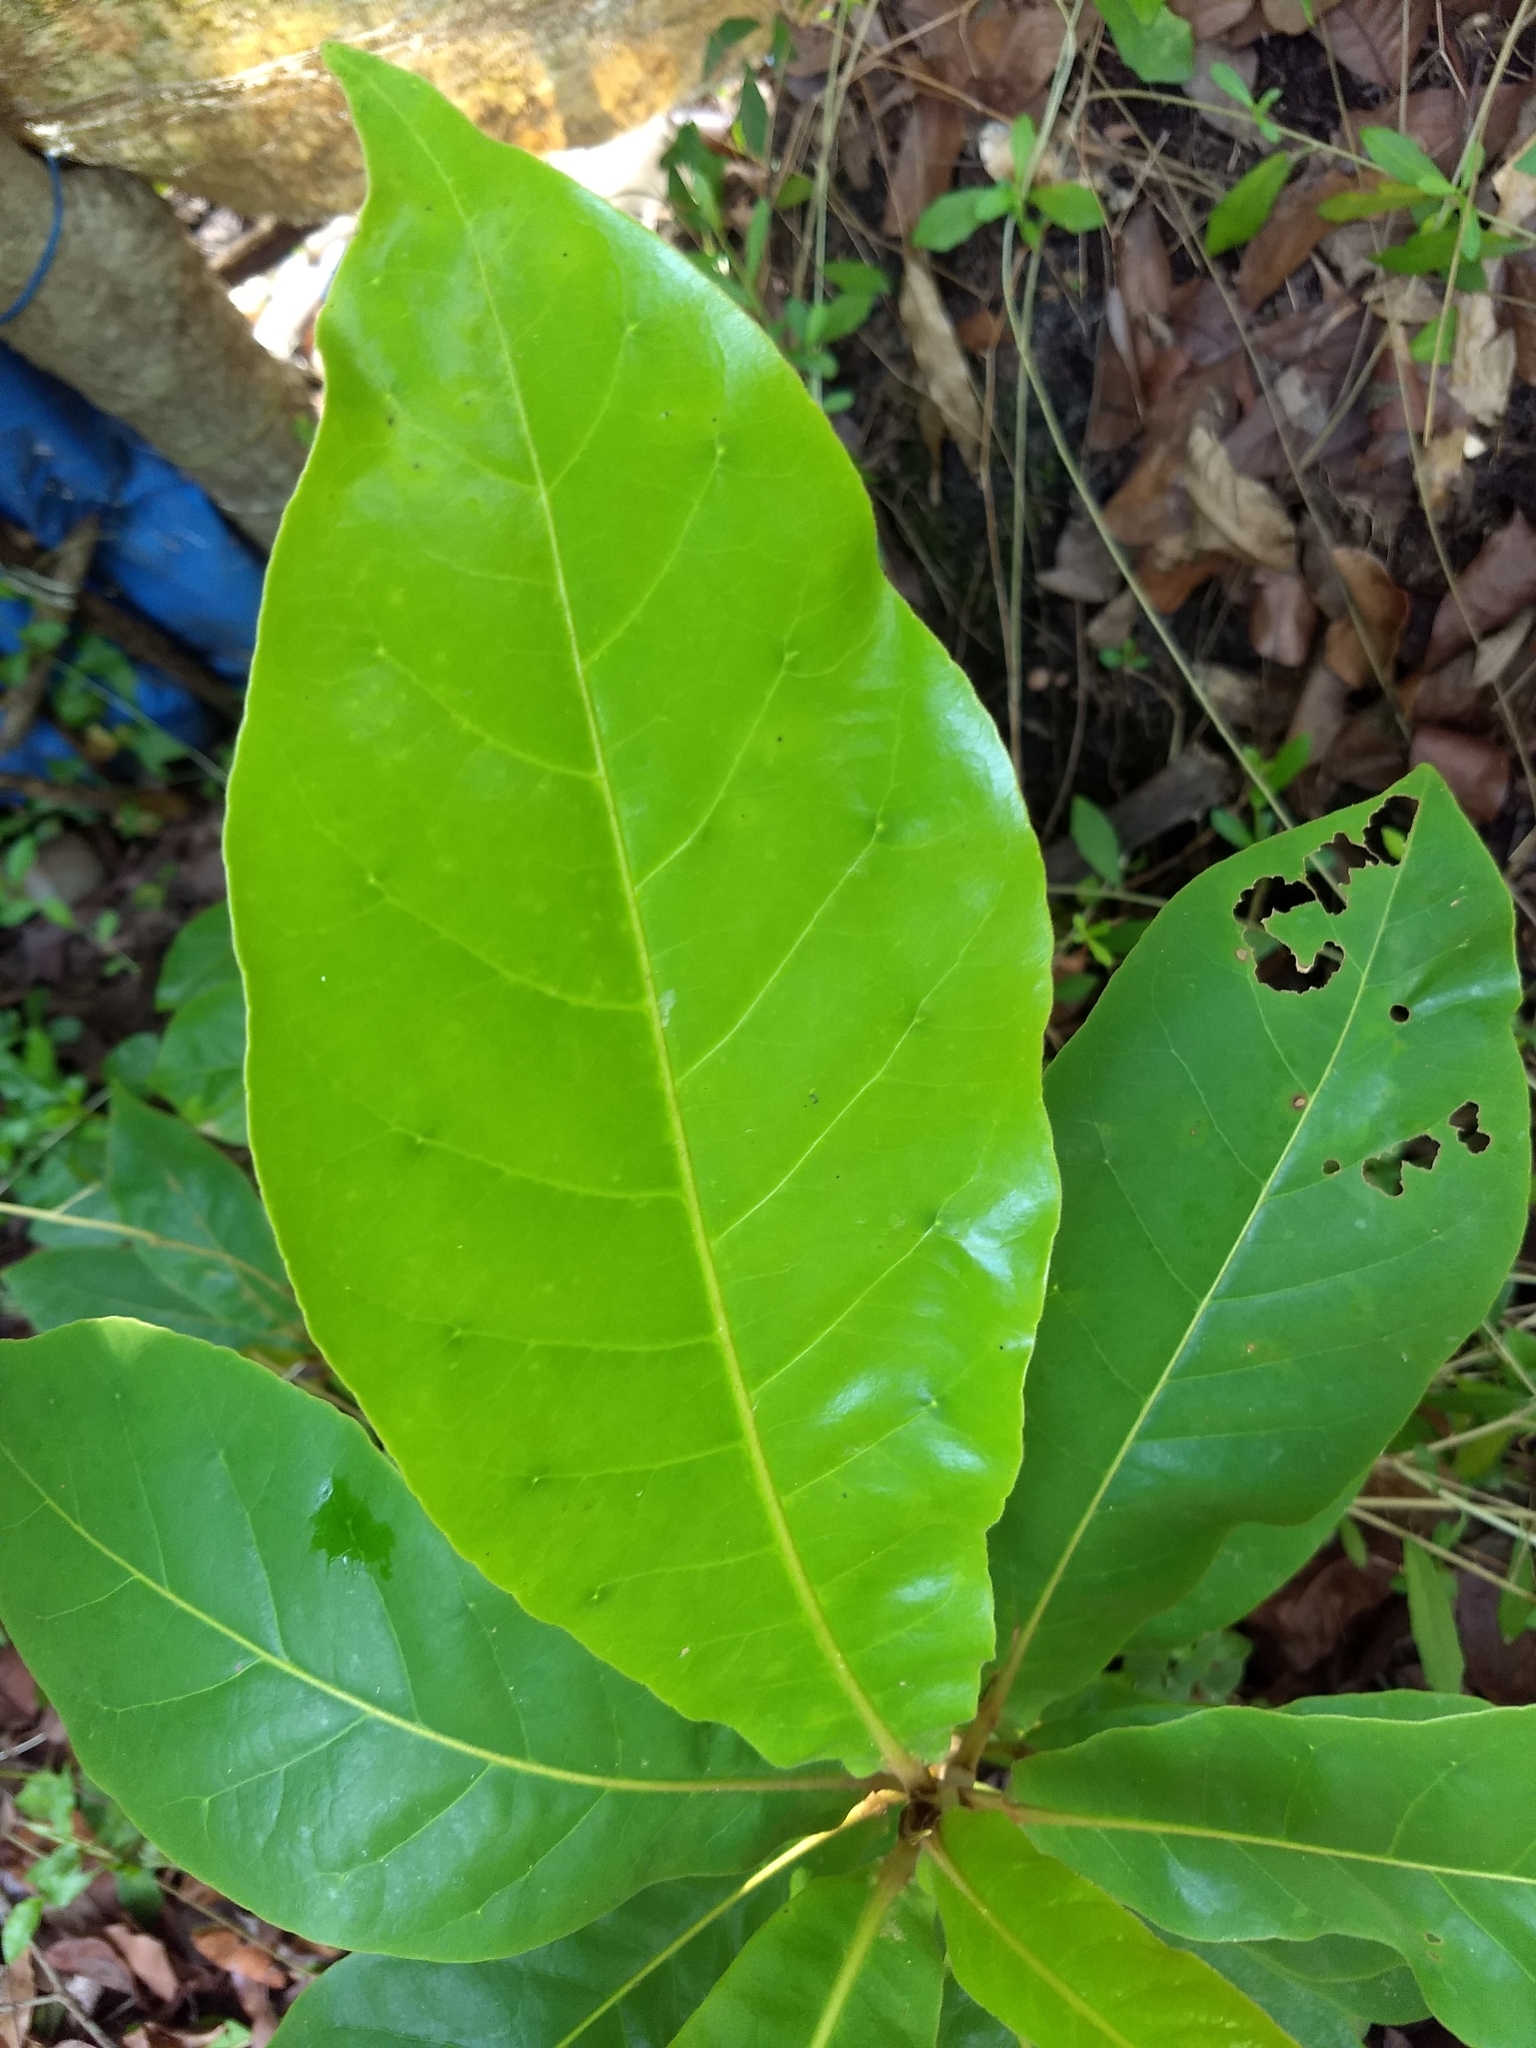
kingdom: Plantae
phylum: Tracheophyta
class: Magnoliopsida
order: Myrtales
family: Combretaceae
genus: Terminalia
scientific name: Terminalia catappa
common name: Tropical almond
